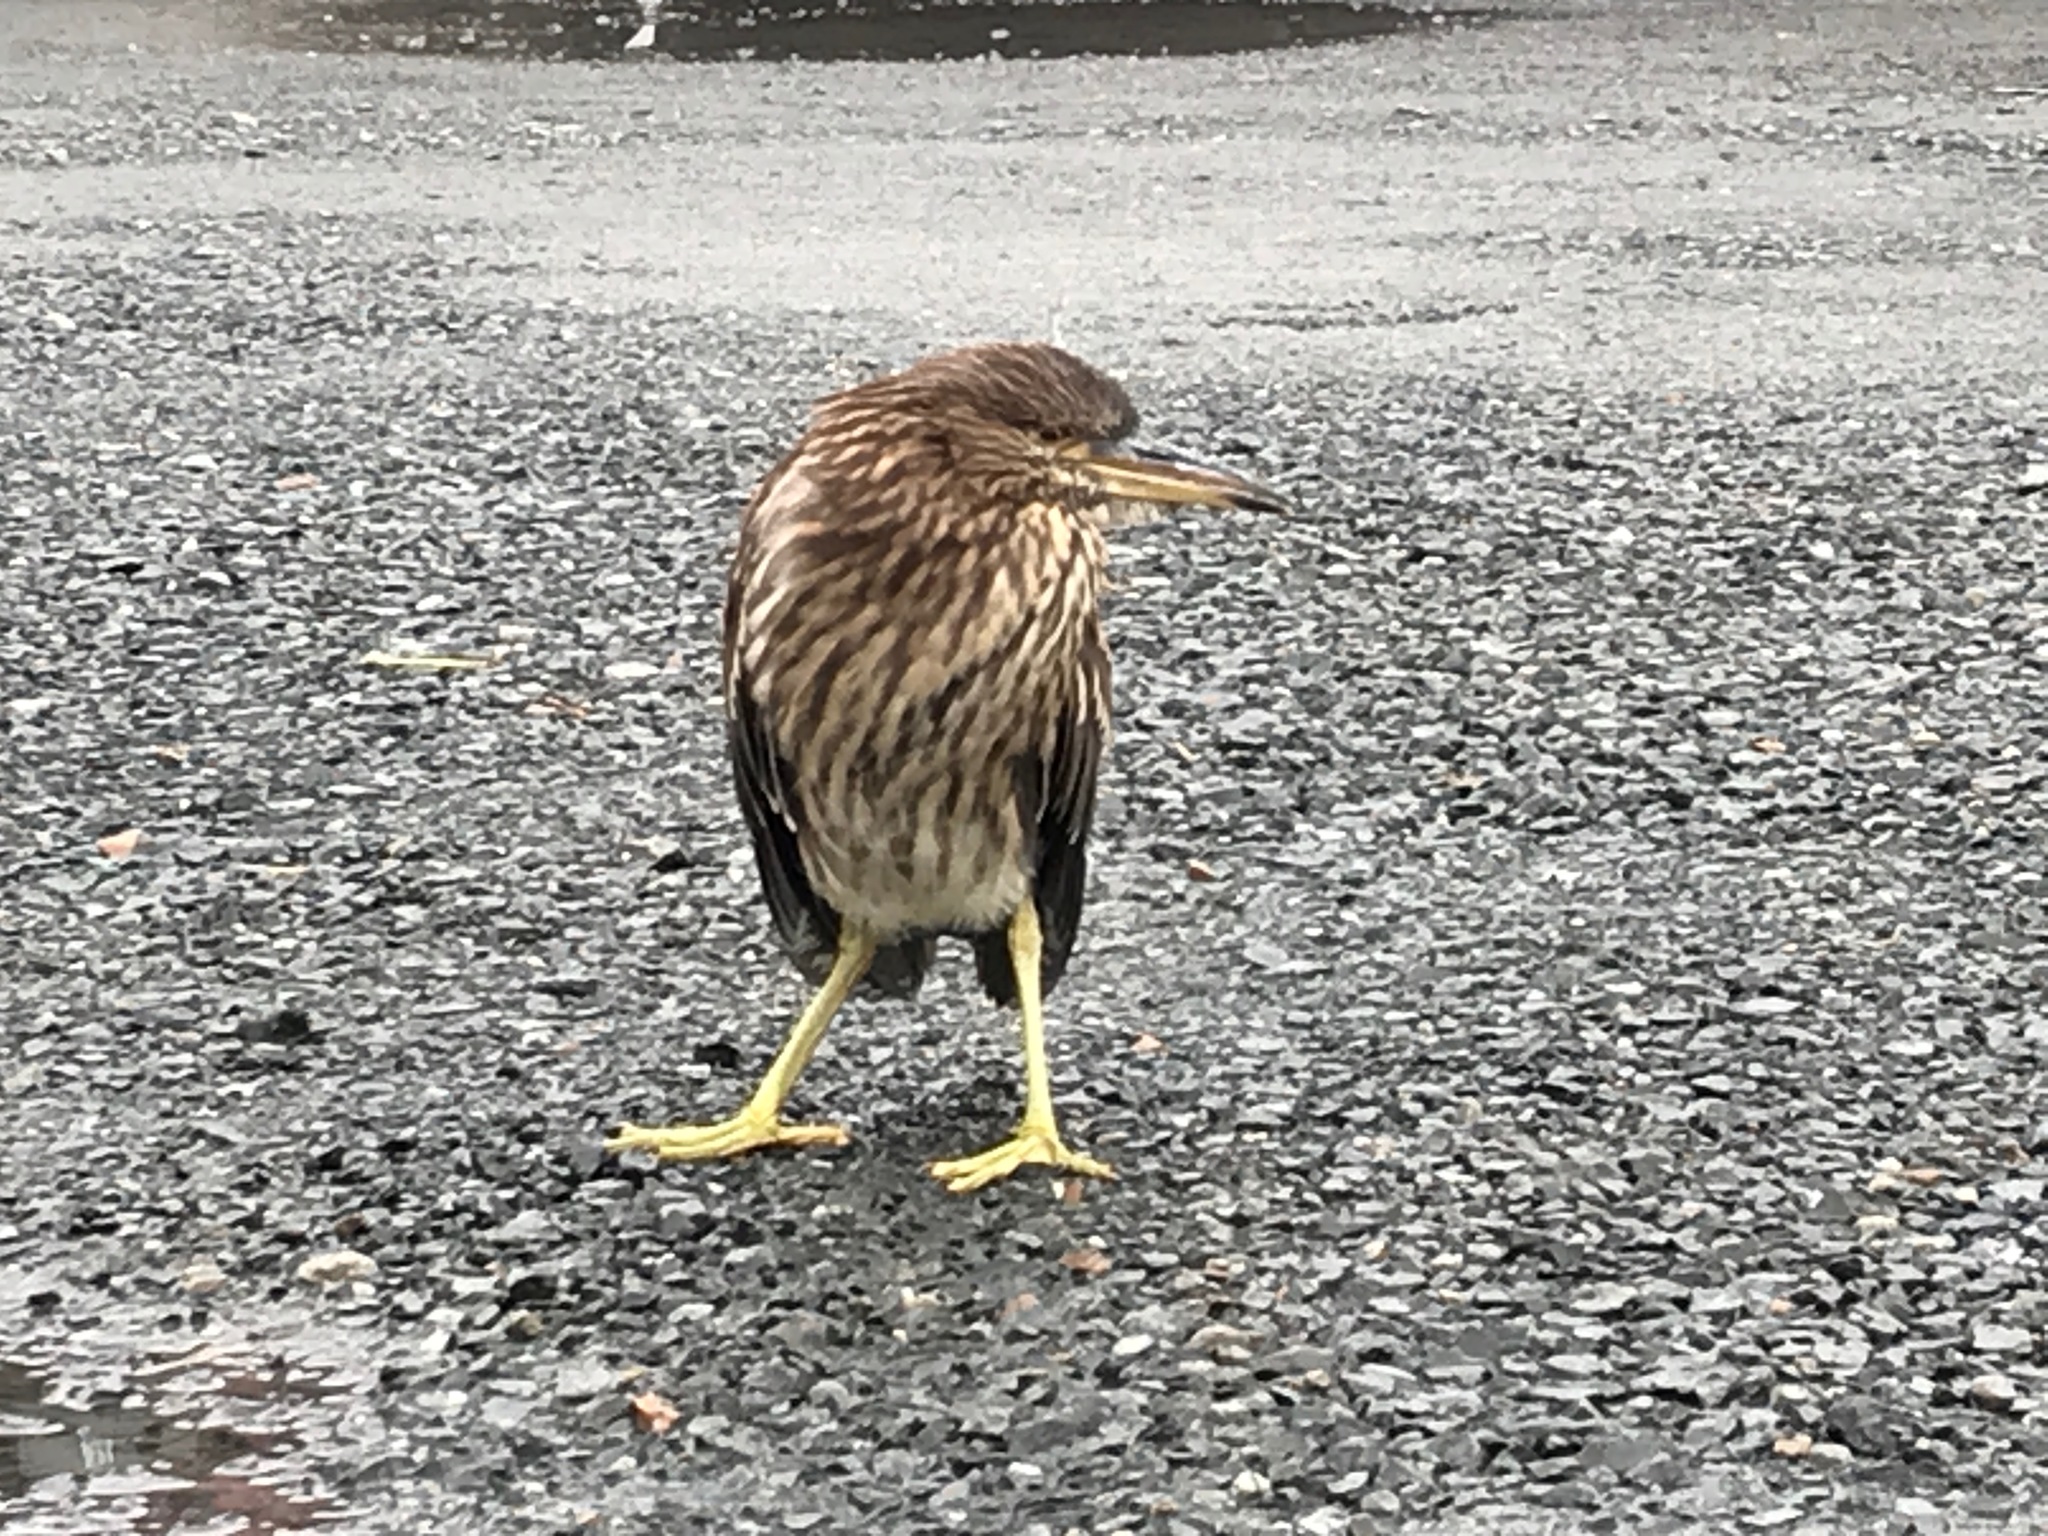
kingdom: Animalia
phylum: Chordata
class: Aves
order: Pelecaniformes
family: Ardeidae
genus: Nycticorax
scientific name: Nycticorax nycticorax
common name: Black-crowned night heron
